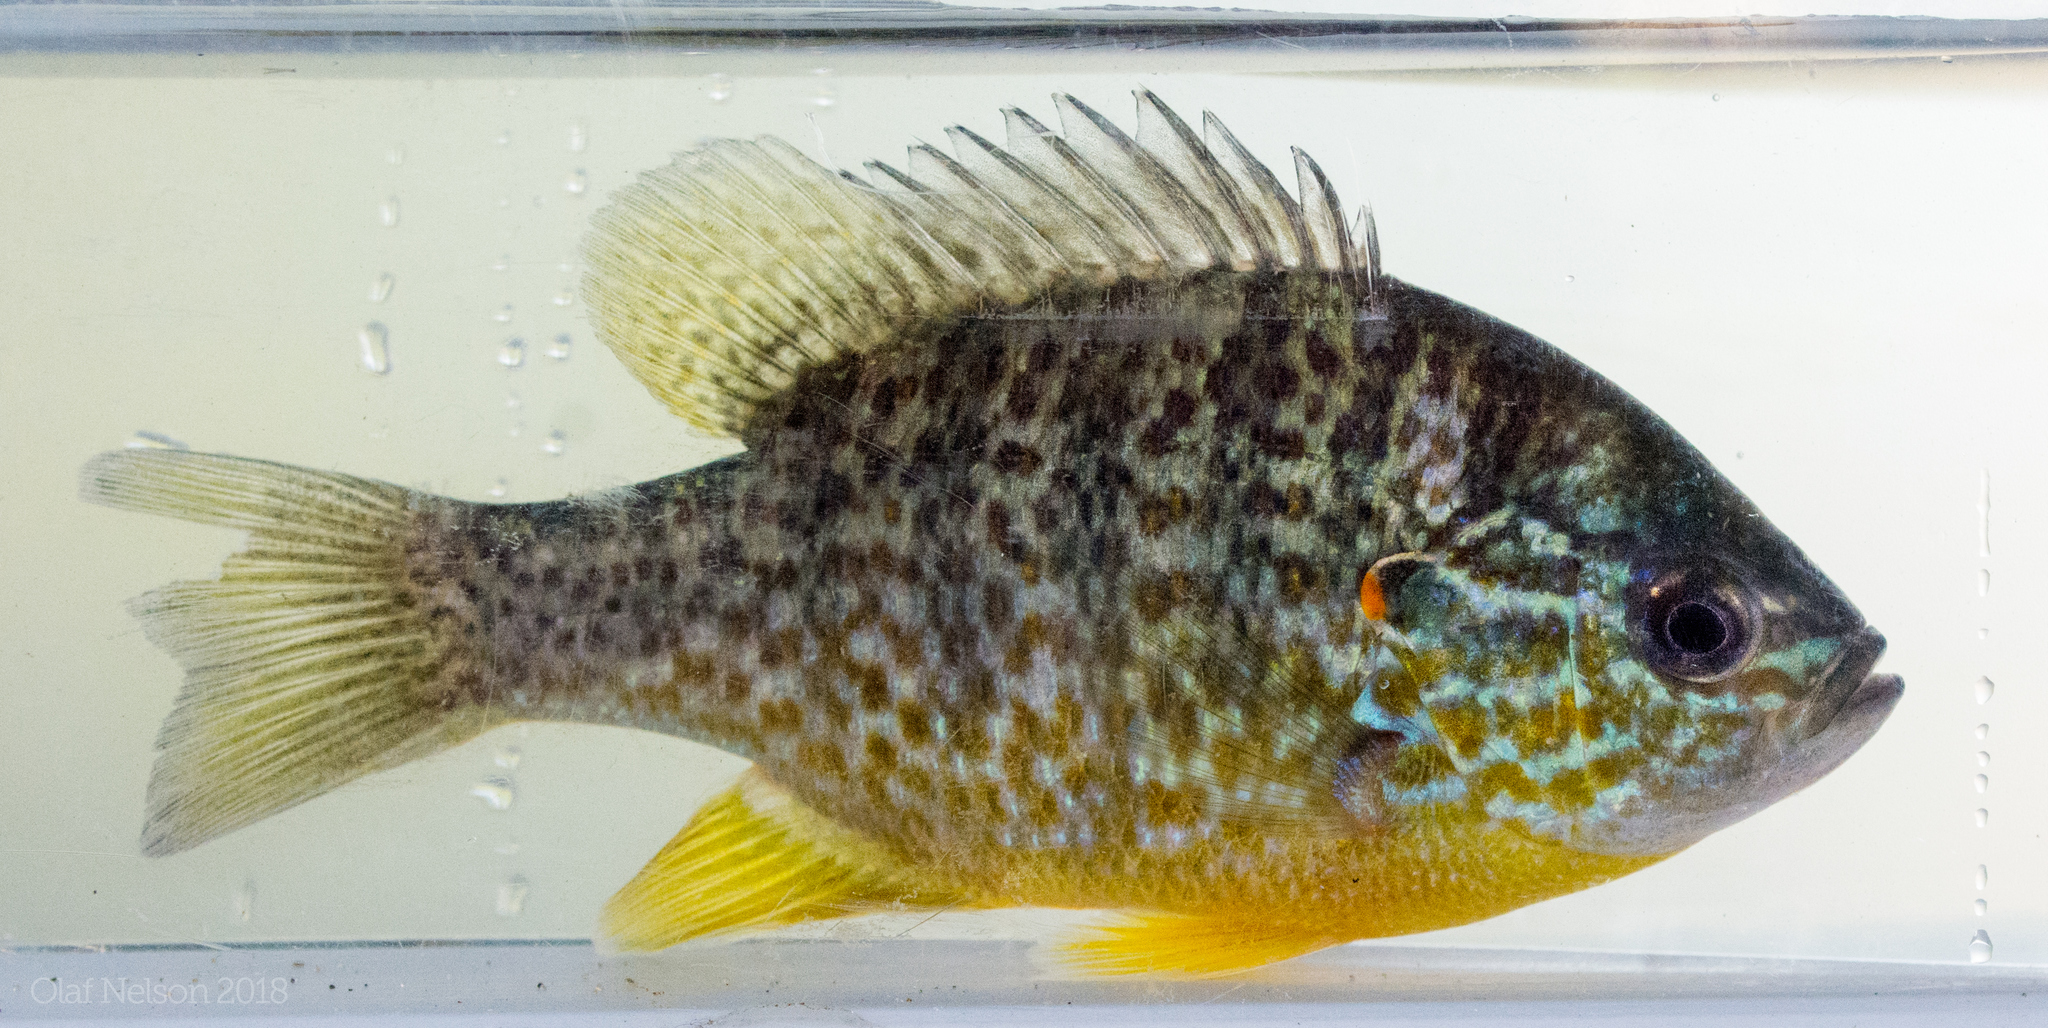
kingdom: Animalia
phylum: Chordata
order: Perciformes
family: Centrarchidae
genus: Lepomis
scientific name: Lepomis gibbosus
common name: Pumpkinseed
